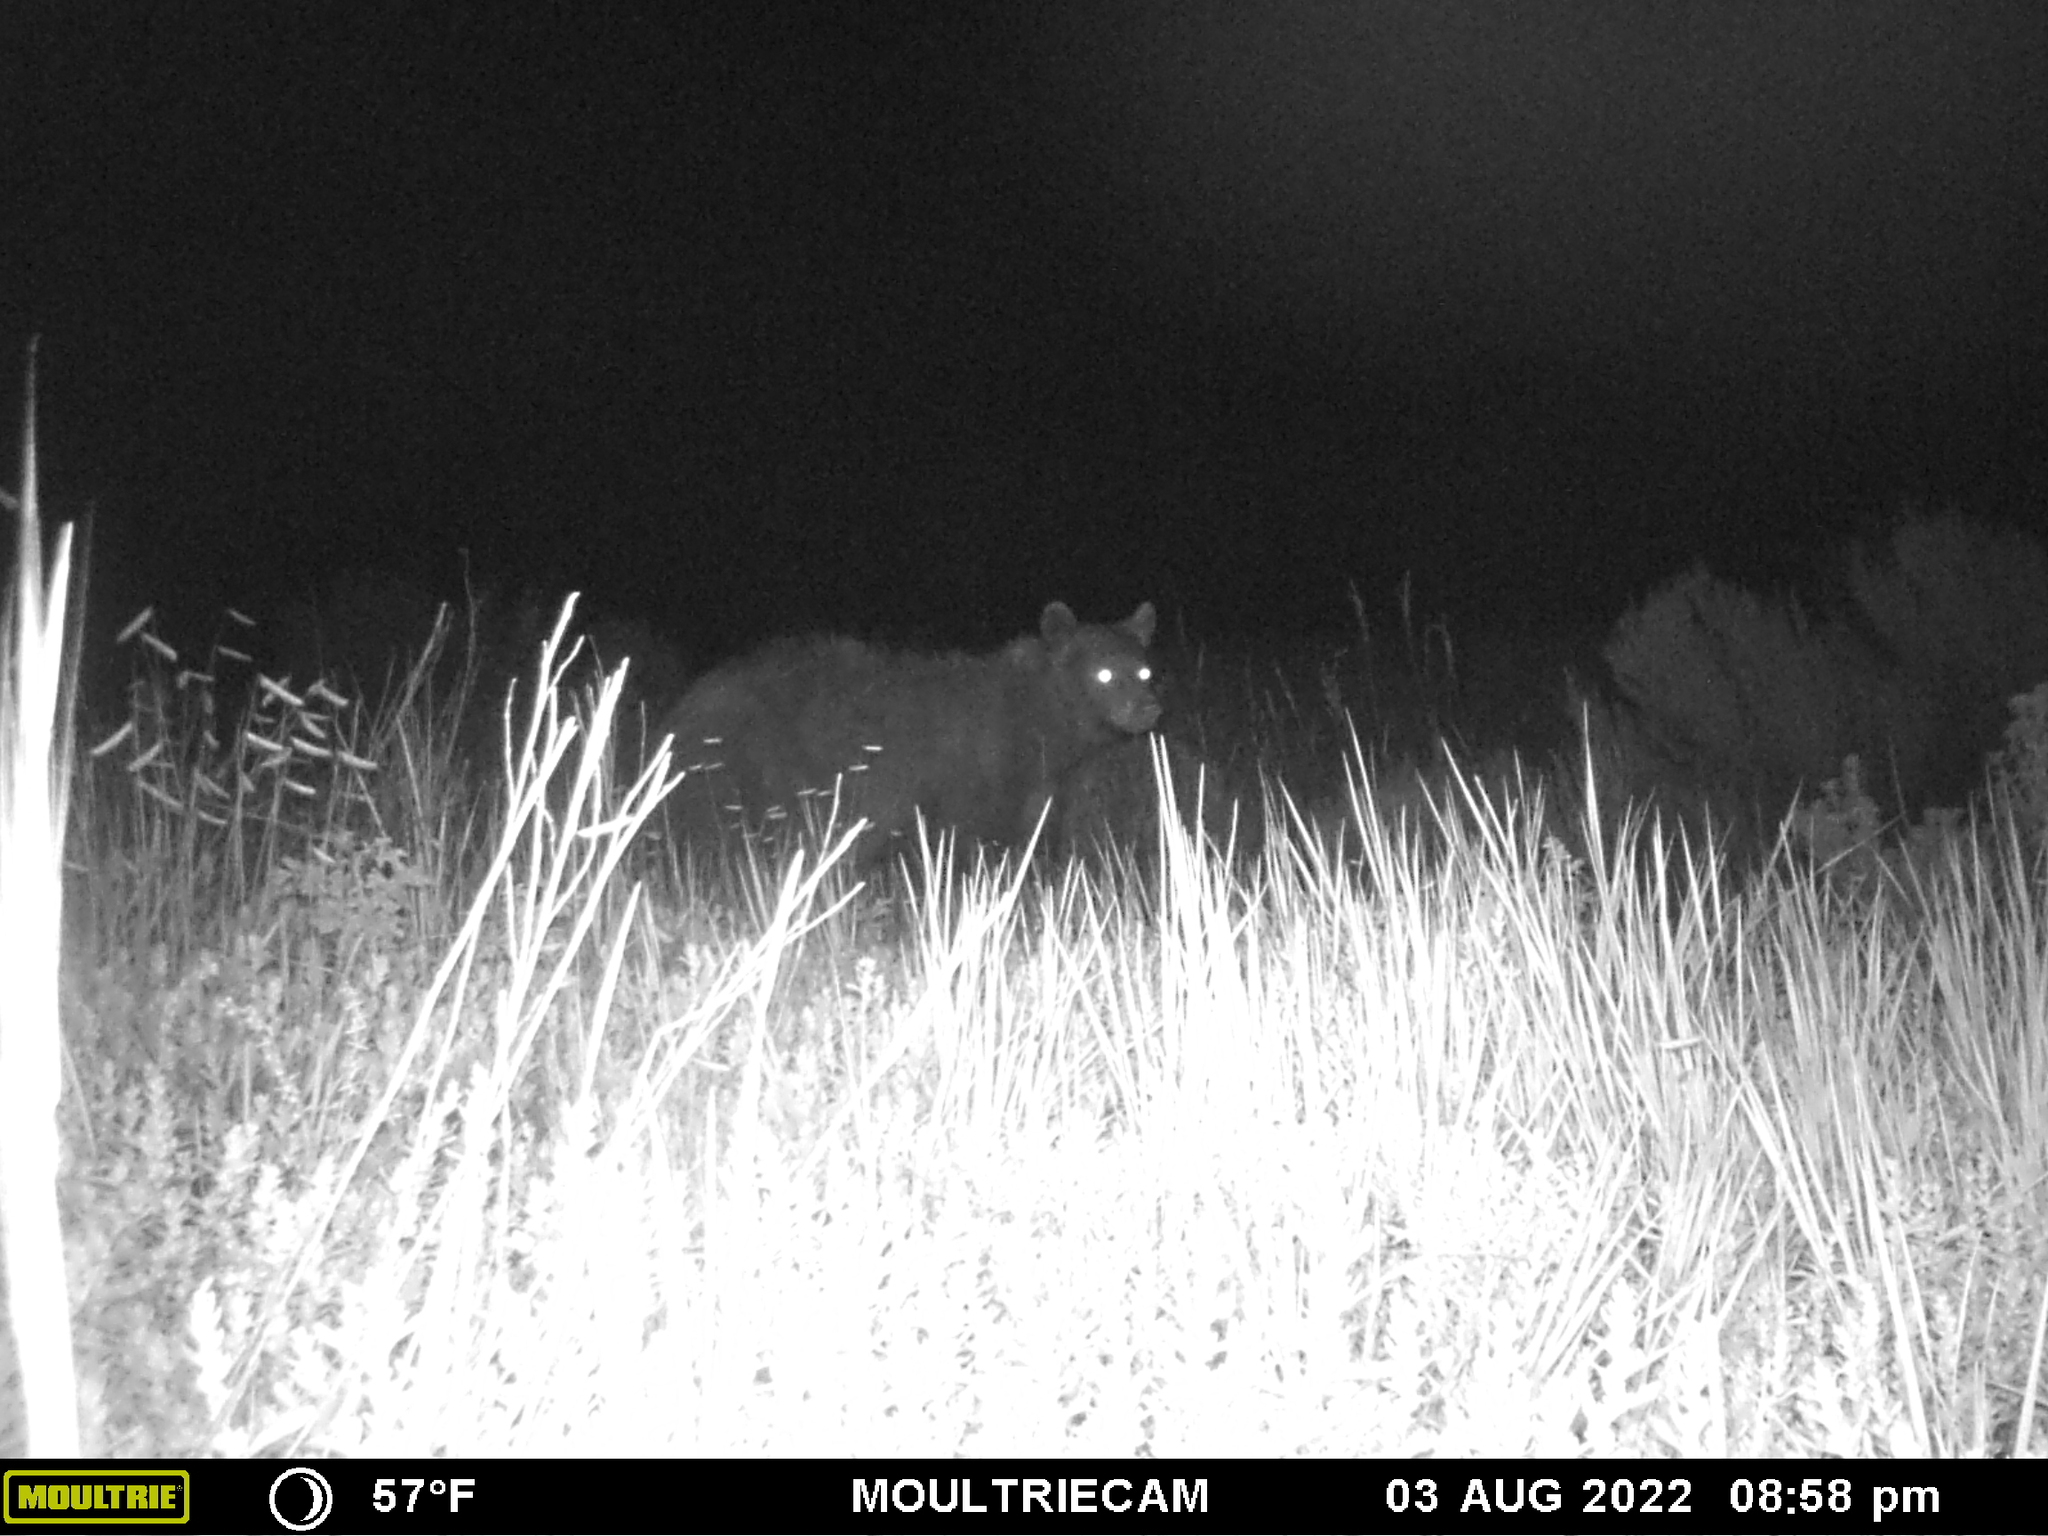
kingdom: Animalia
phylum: Chordata
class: Mammalia
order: Carnivora
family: Ursidae
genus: Ursus
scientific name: Ursus americanus
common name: American black bear
